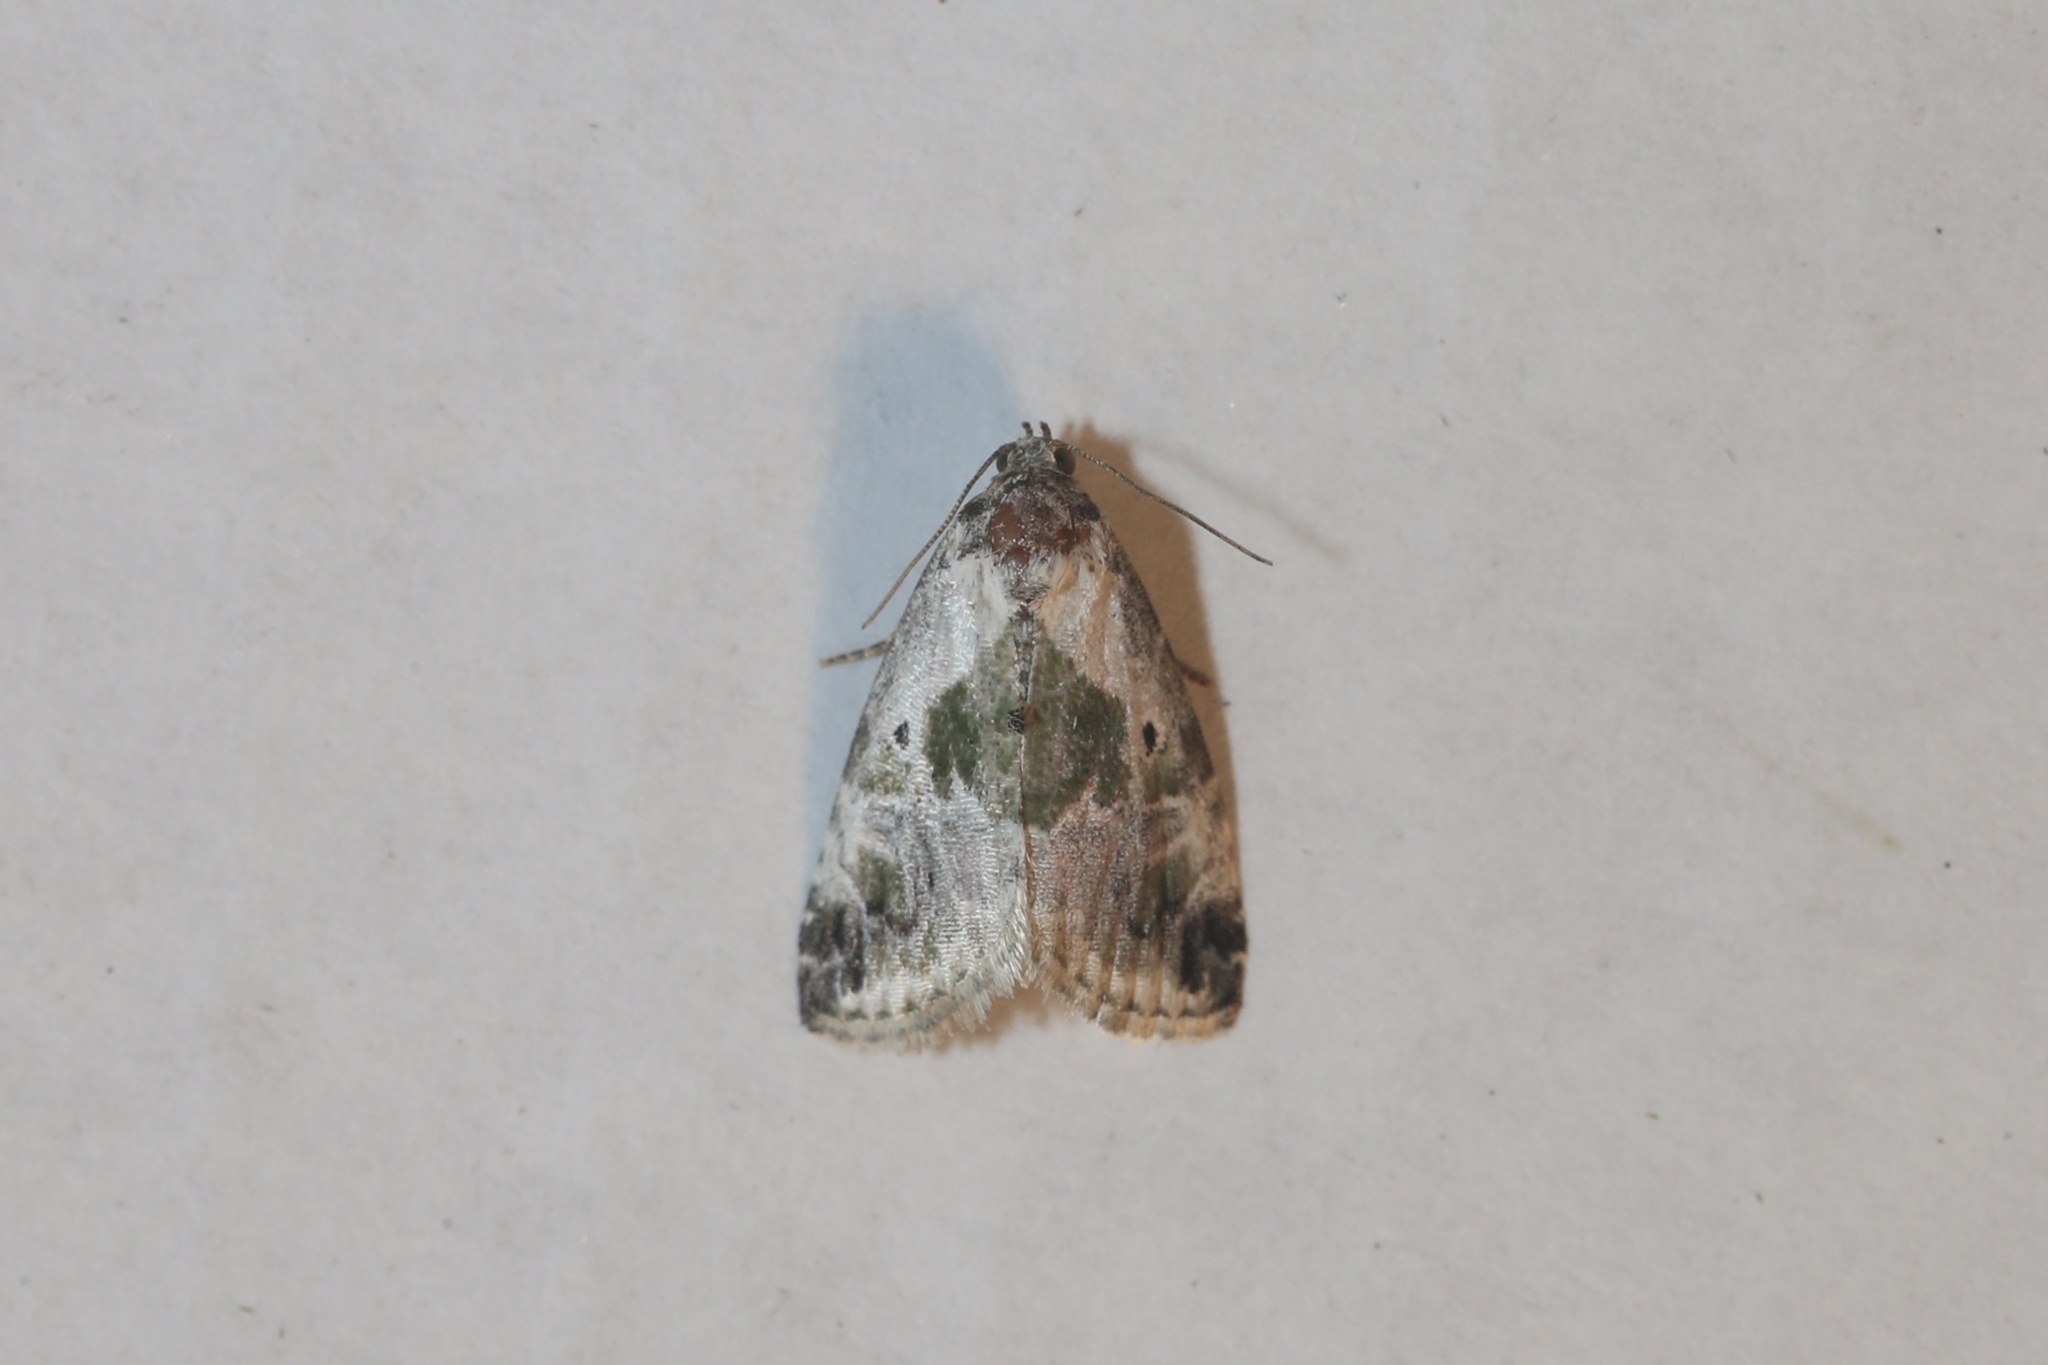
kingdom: Animalia
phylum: Arthropoda
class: Insecta
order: Lepidoptera
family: Noctuidae
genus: Maliattha
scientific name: Maliattha synochitis
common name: Black-dotted glyph
